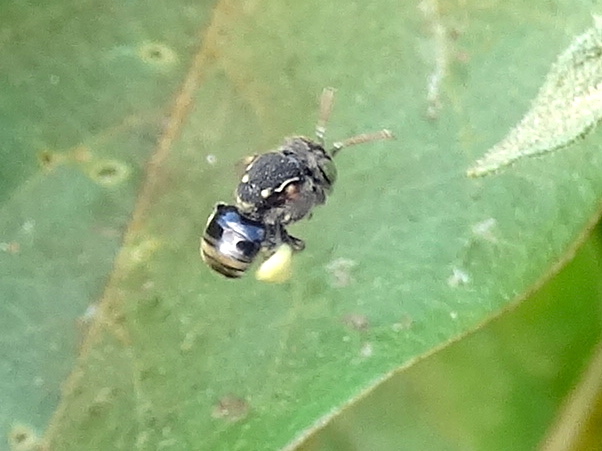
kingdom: Animalia
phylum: Arthropoda
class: Insecta
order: Hymenoptera
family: Apidae
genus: Nannotrigona
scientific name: Nannotrigona perilampoides
